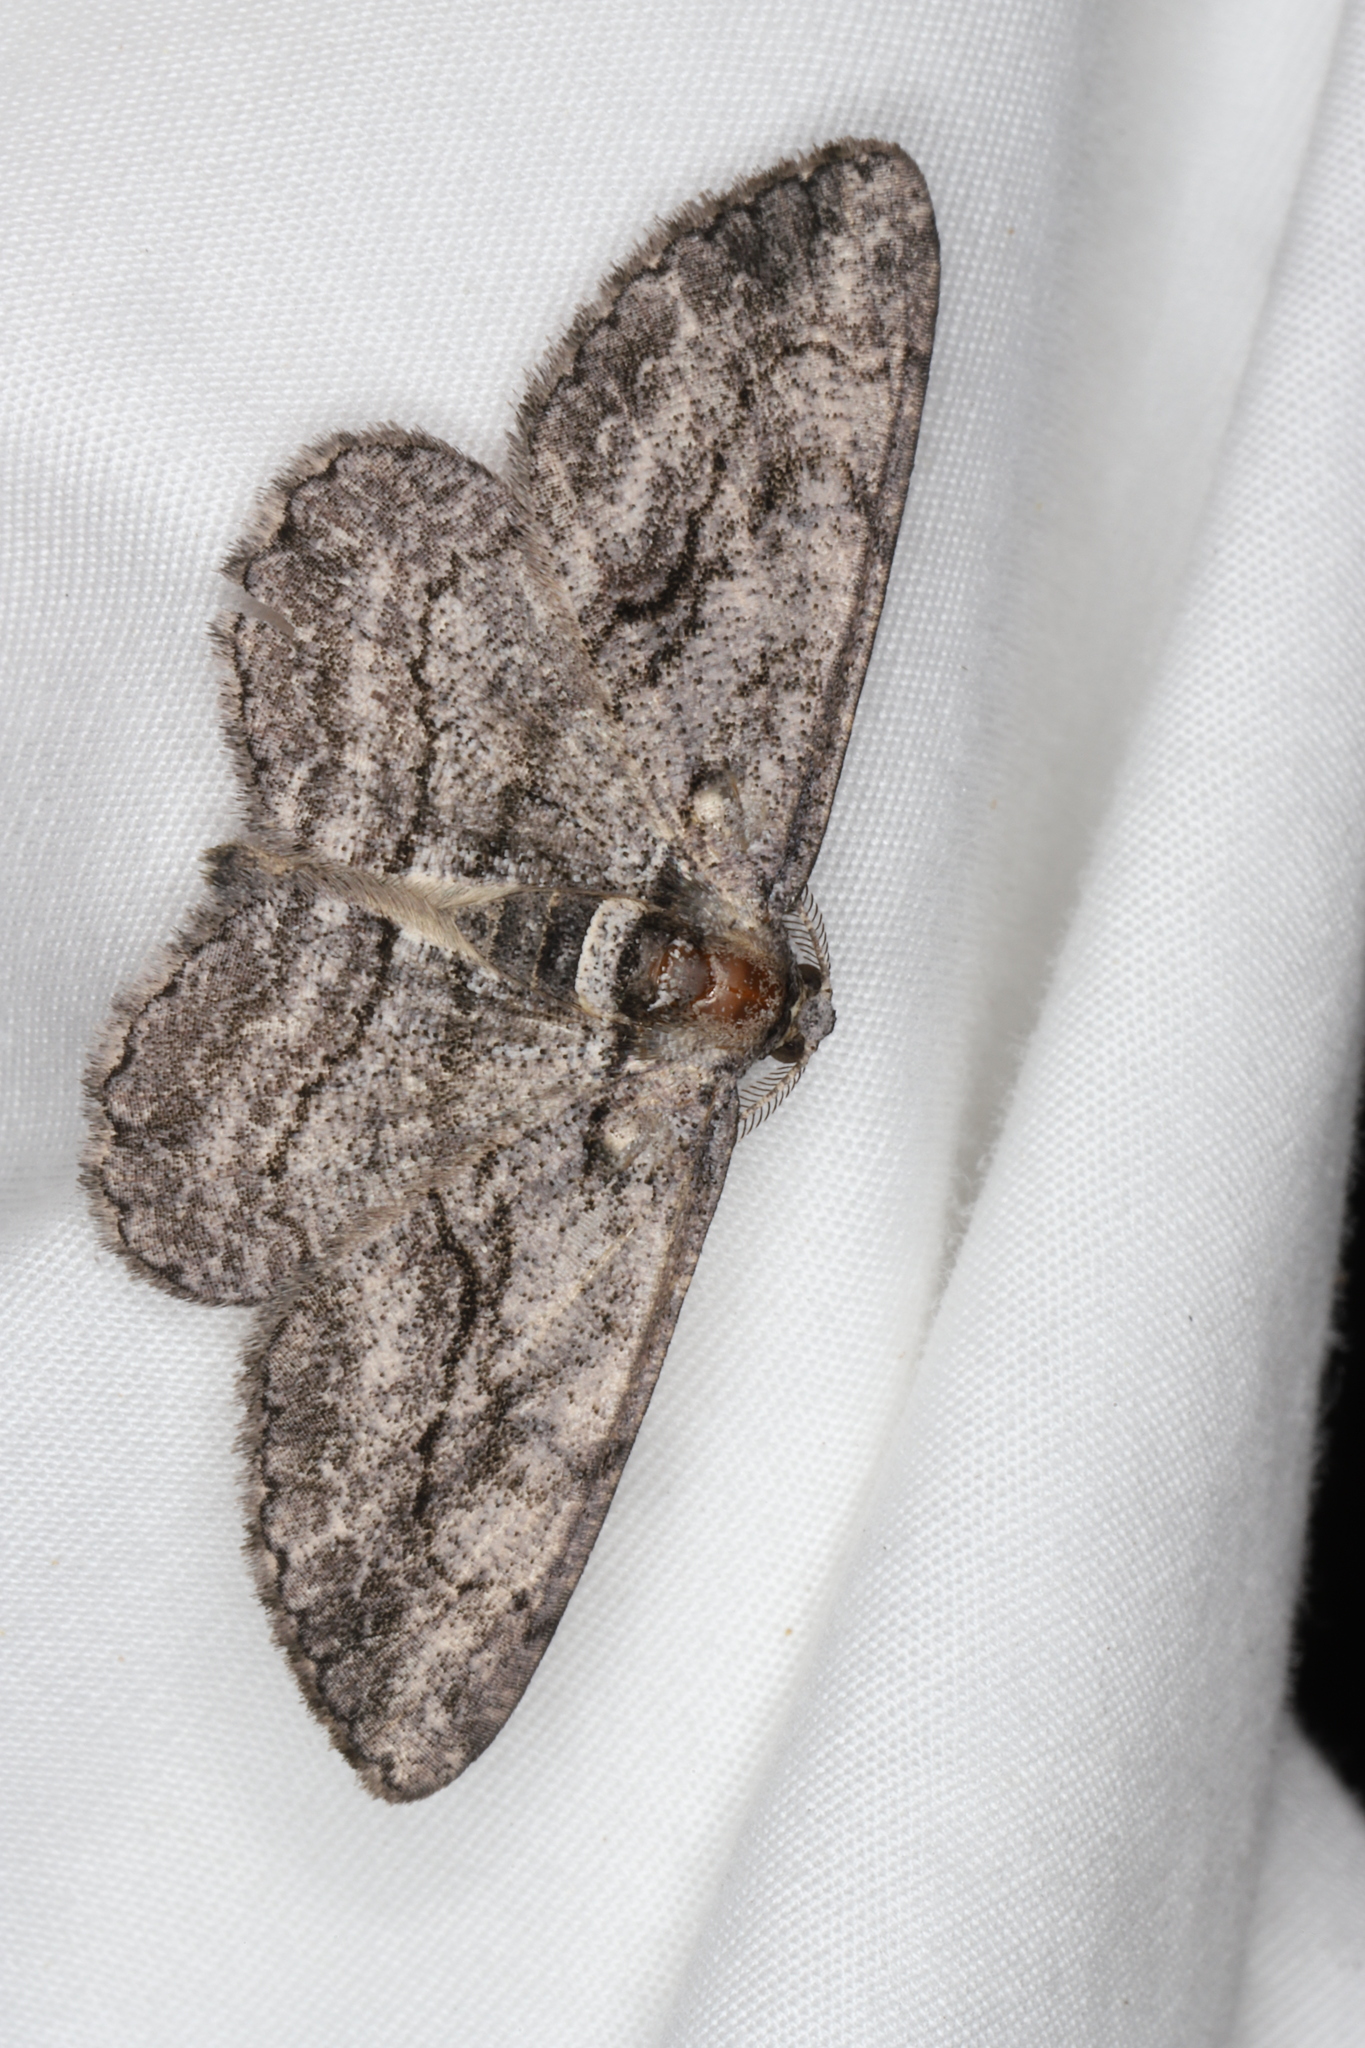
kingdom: Animalia
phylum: Arthropoda
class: Insecta
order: Lepidoptera
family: Geometridae
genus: Anavitrinella
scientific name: Anavitrinella pampinaria
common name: Common gray
